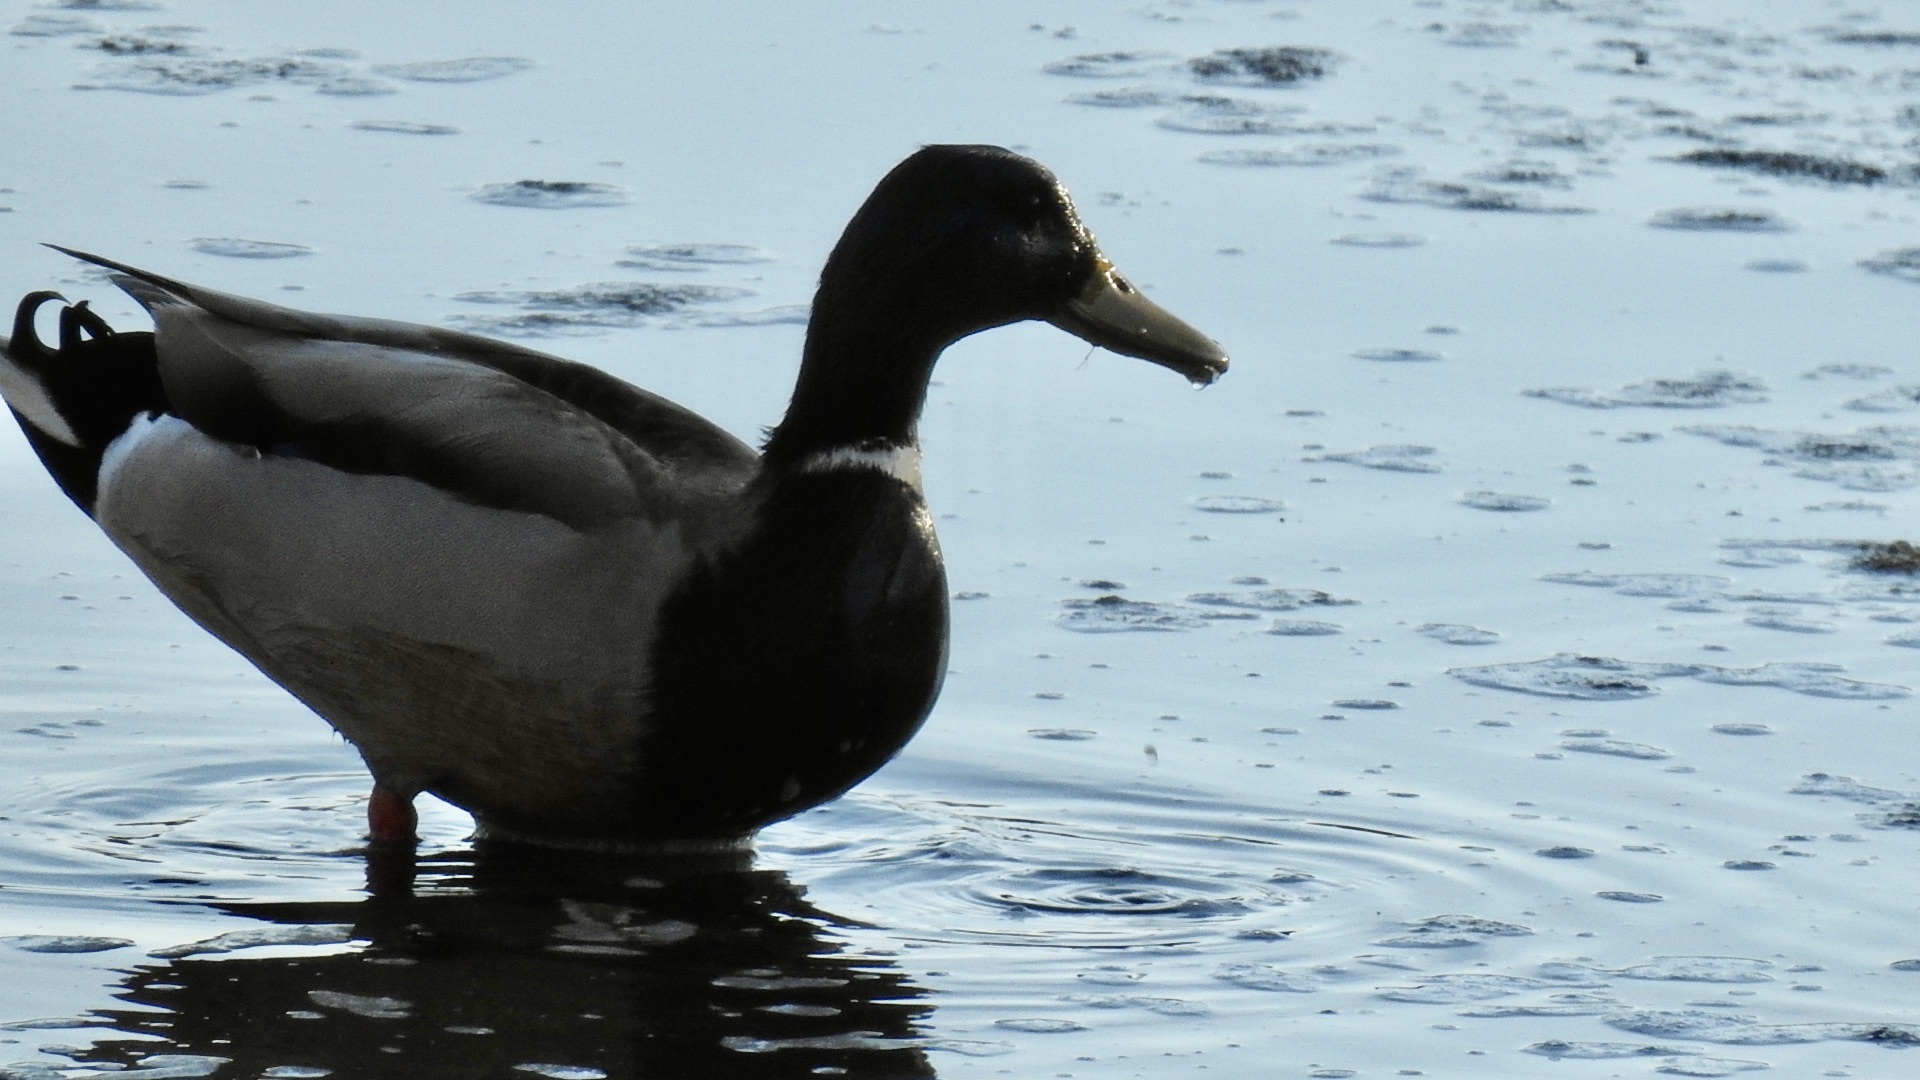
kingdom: Animalia
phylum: Chordata
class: Aves
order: Anseriformes
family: Anatidae
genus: Anas
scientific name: Anas platyrhynchos
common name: Mallard
